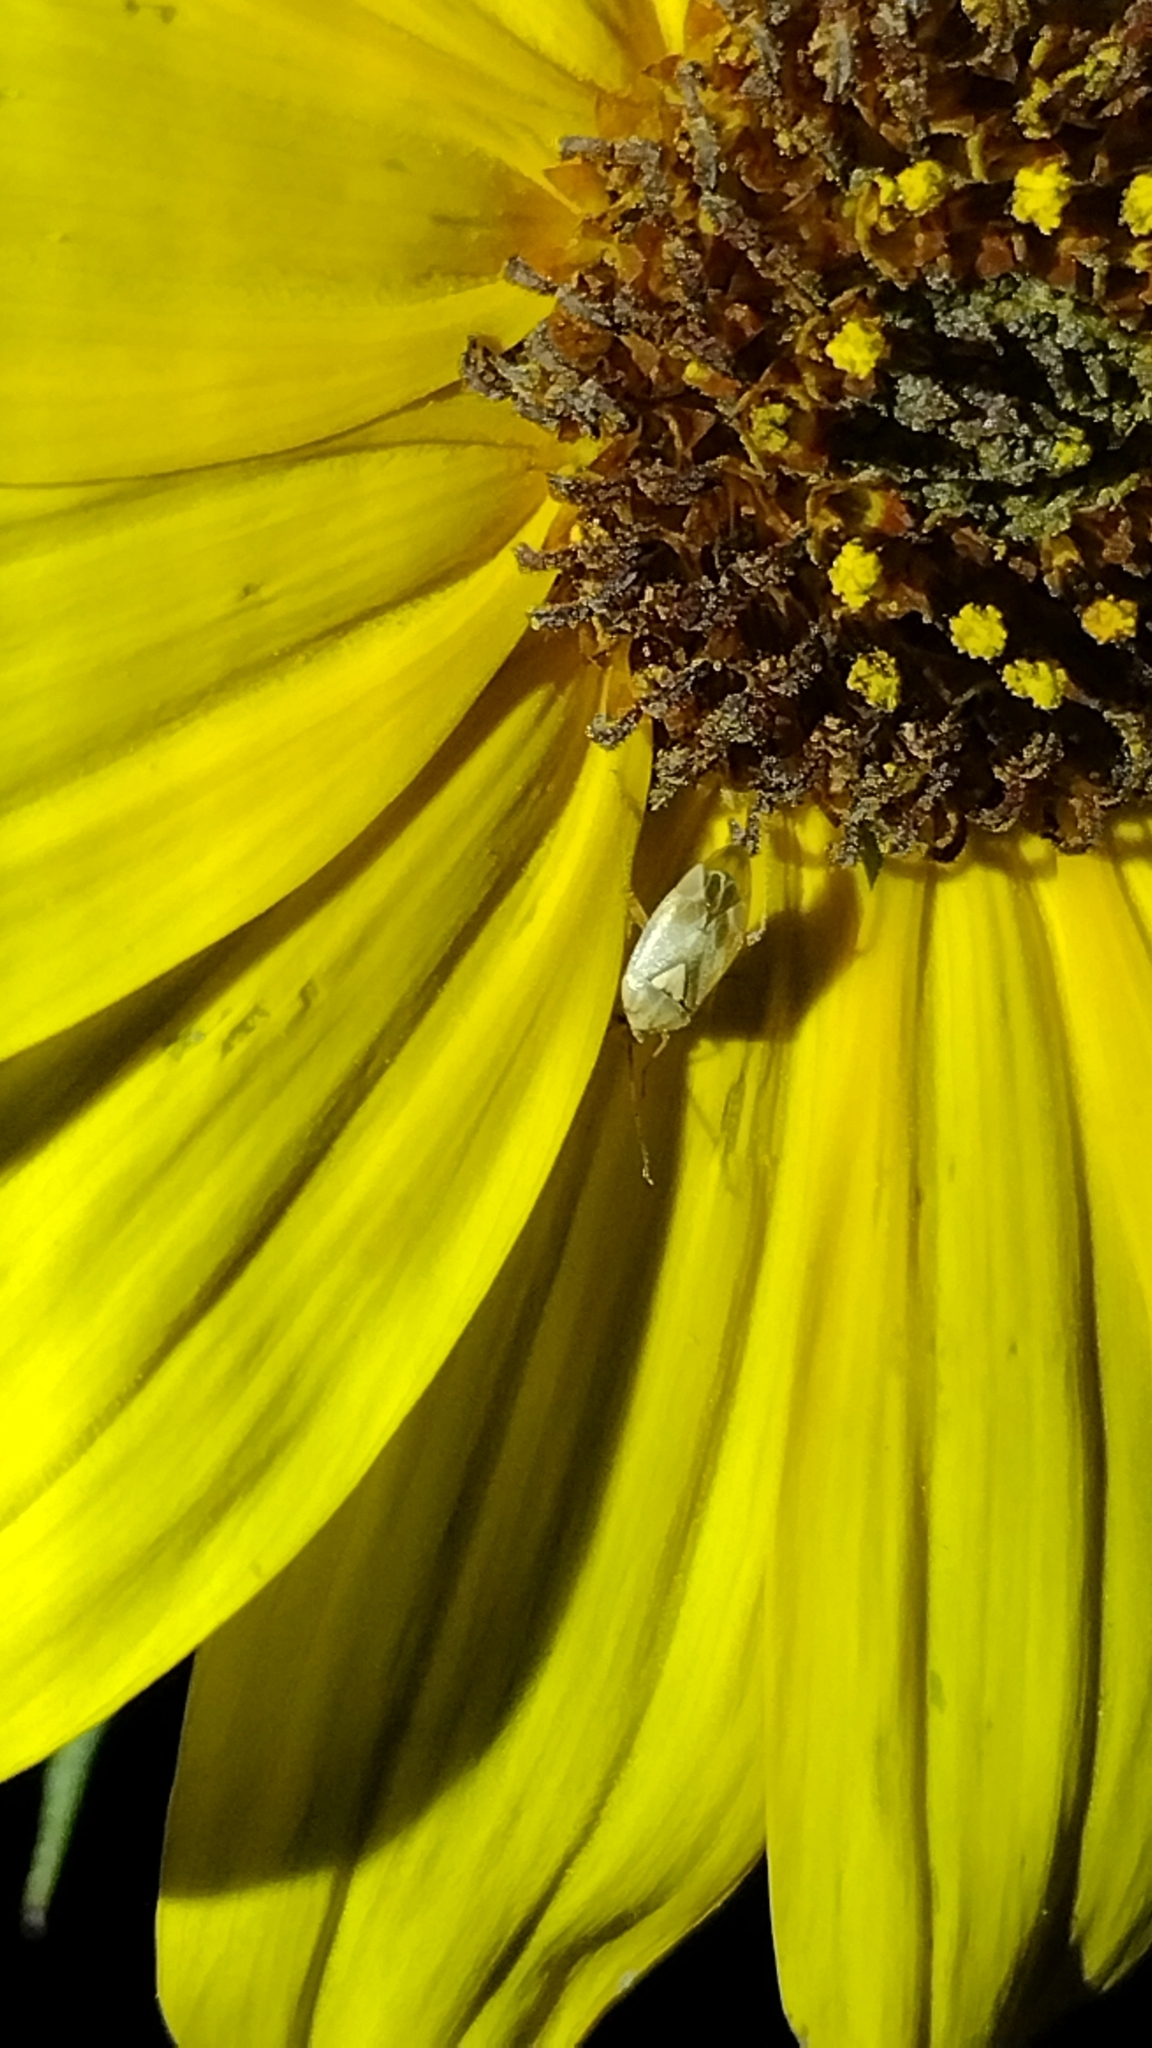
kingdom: Animalia
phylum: Arthropoda
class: Insecta
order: Hemiptera
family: Miridae
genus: Taylorilygus
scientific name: Taylorilygus apicalis
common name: Plant bug
